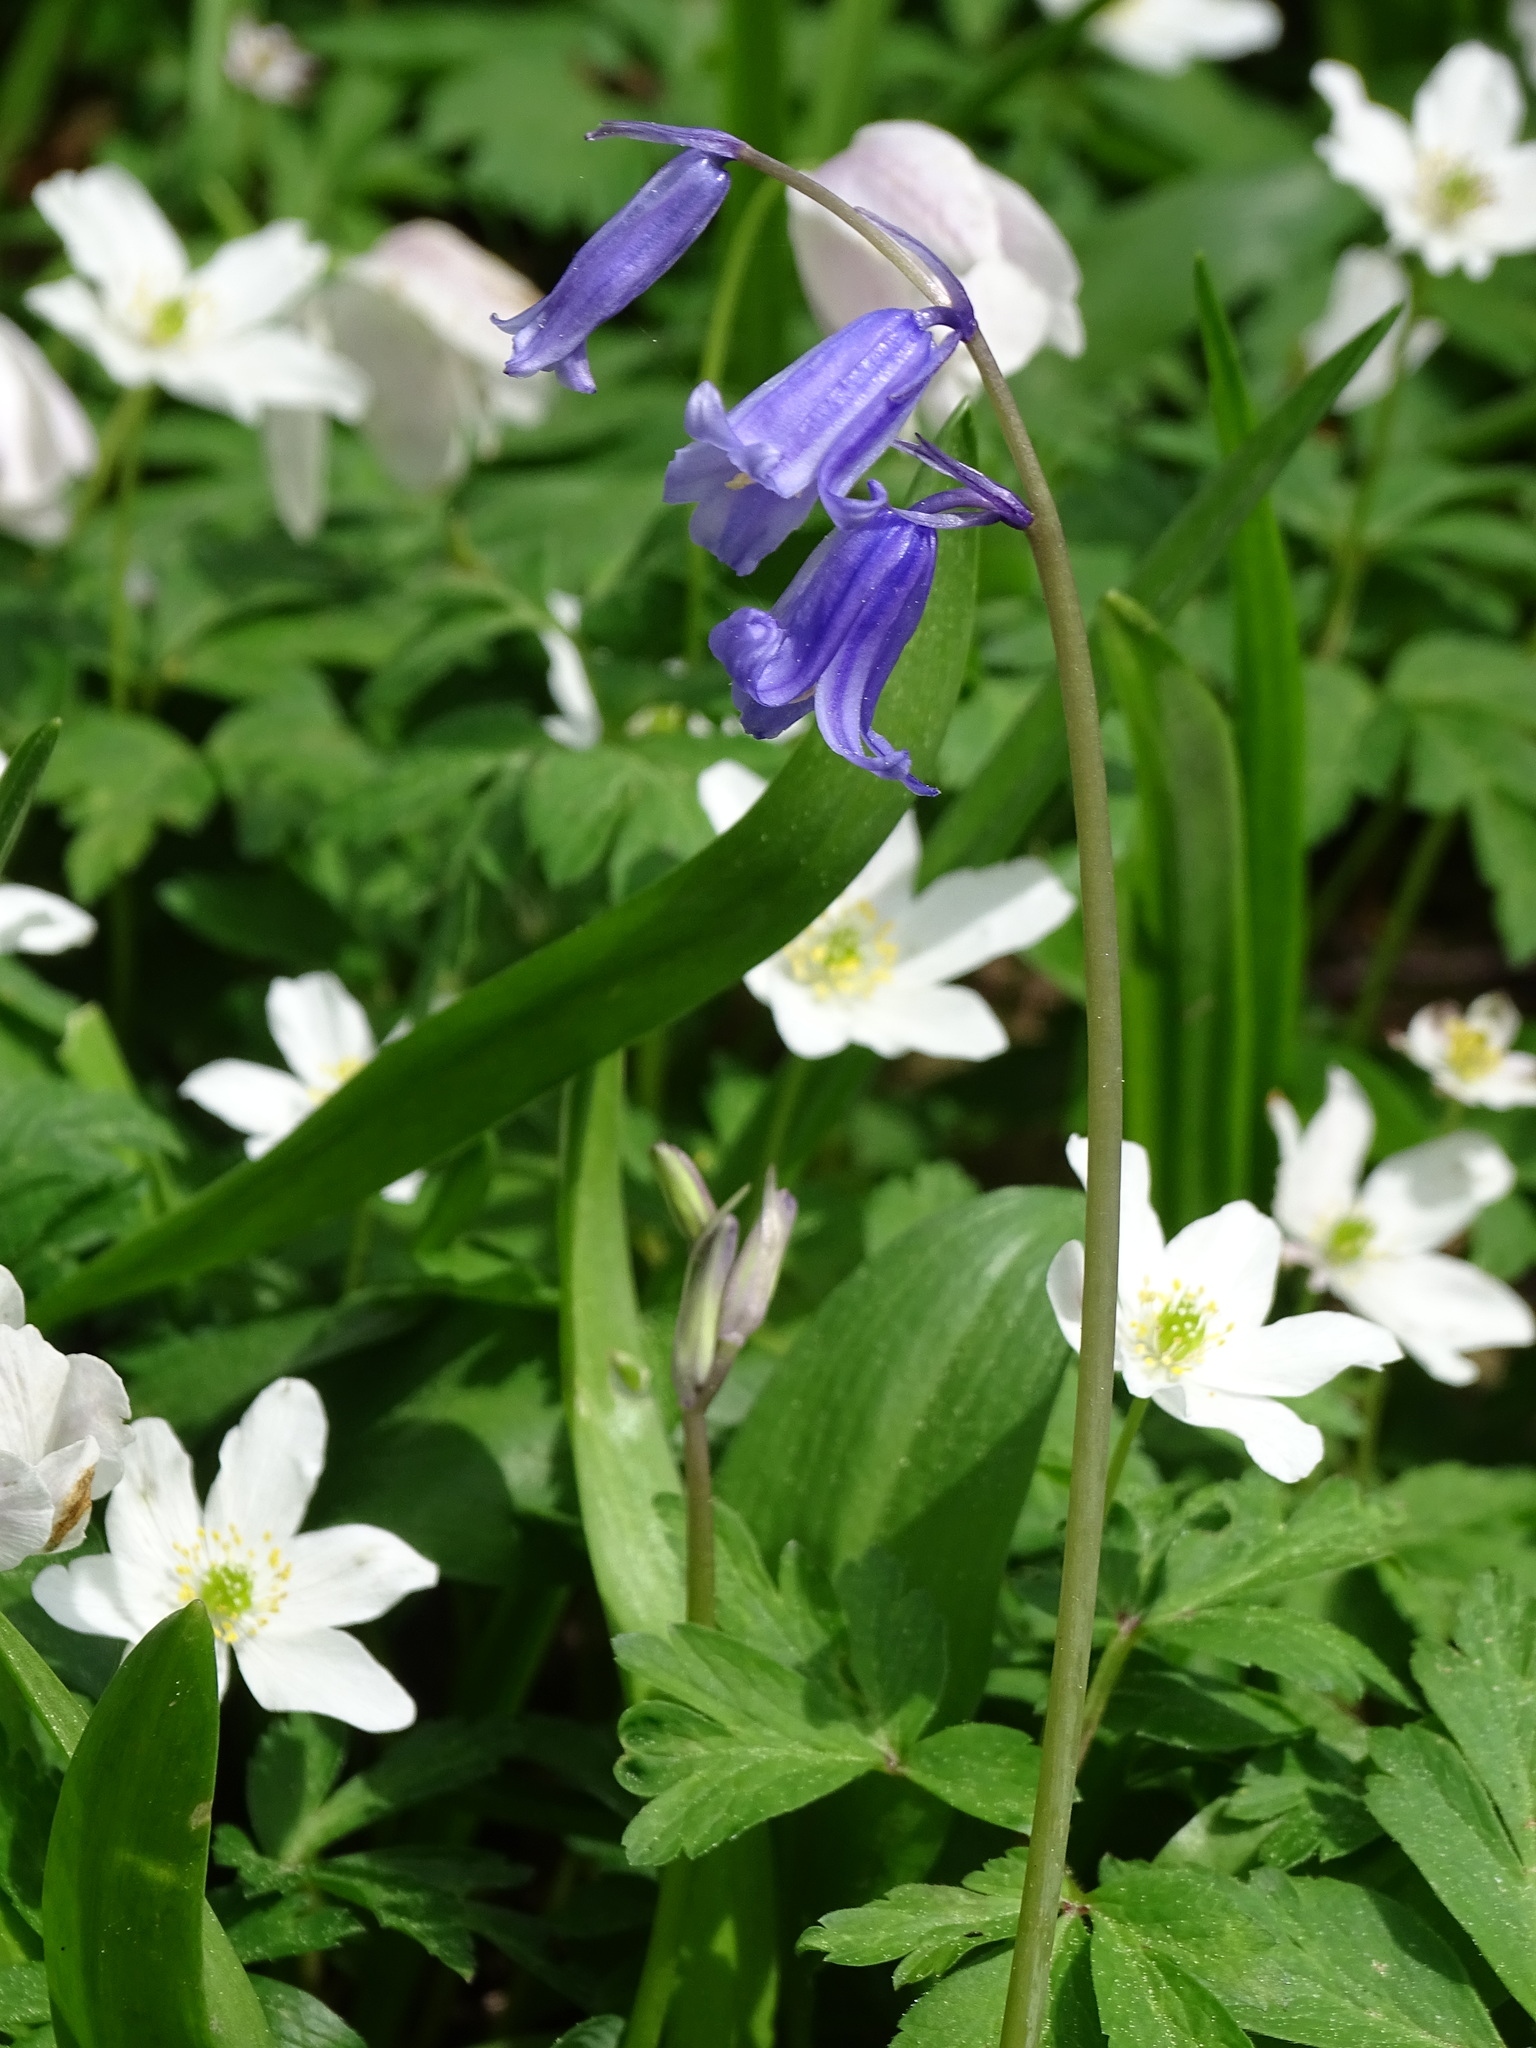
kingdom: Plantae
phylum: Tracheophyta
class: Liliopsida
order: Asparagales
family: Asparagaceae
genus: Hyacinthoides
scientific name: Hyacinthoides non-scripta
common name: Bluebell
